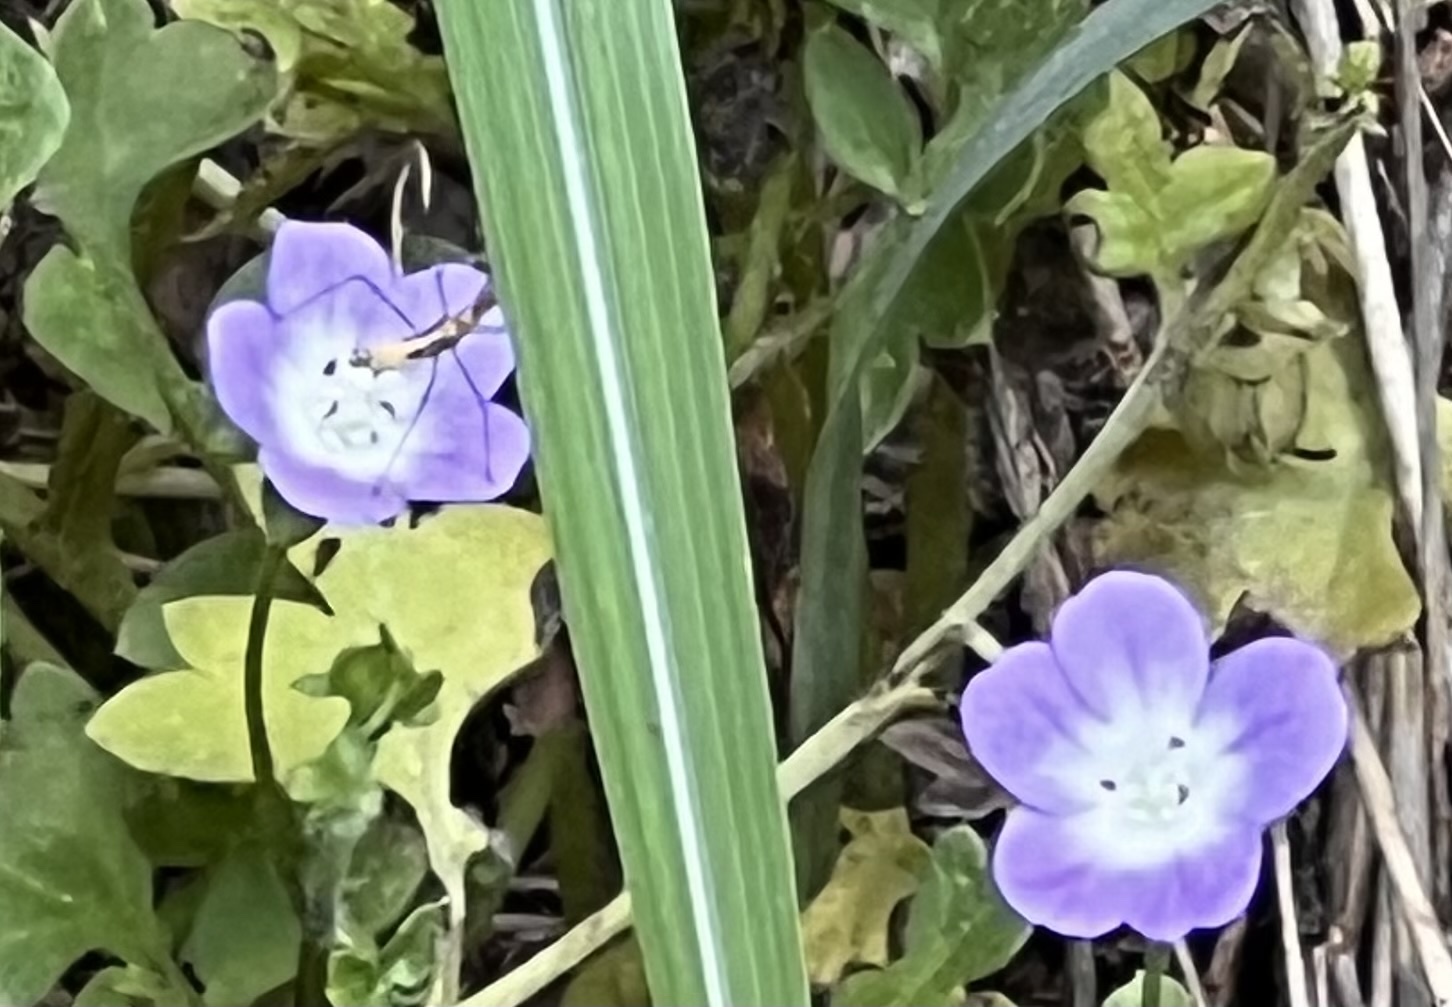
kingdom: Plantae
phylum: Tracheophyta
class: Magnoliopsida
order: Boraginales
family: Hydrophyllaceae
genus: Nemophila
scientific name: Nemophila phacelioides
